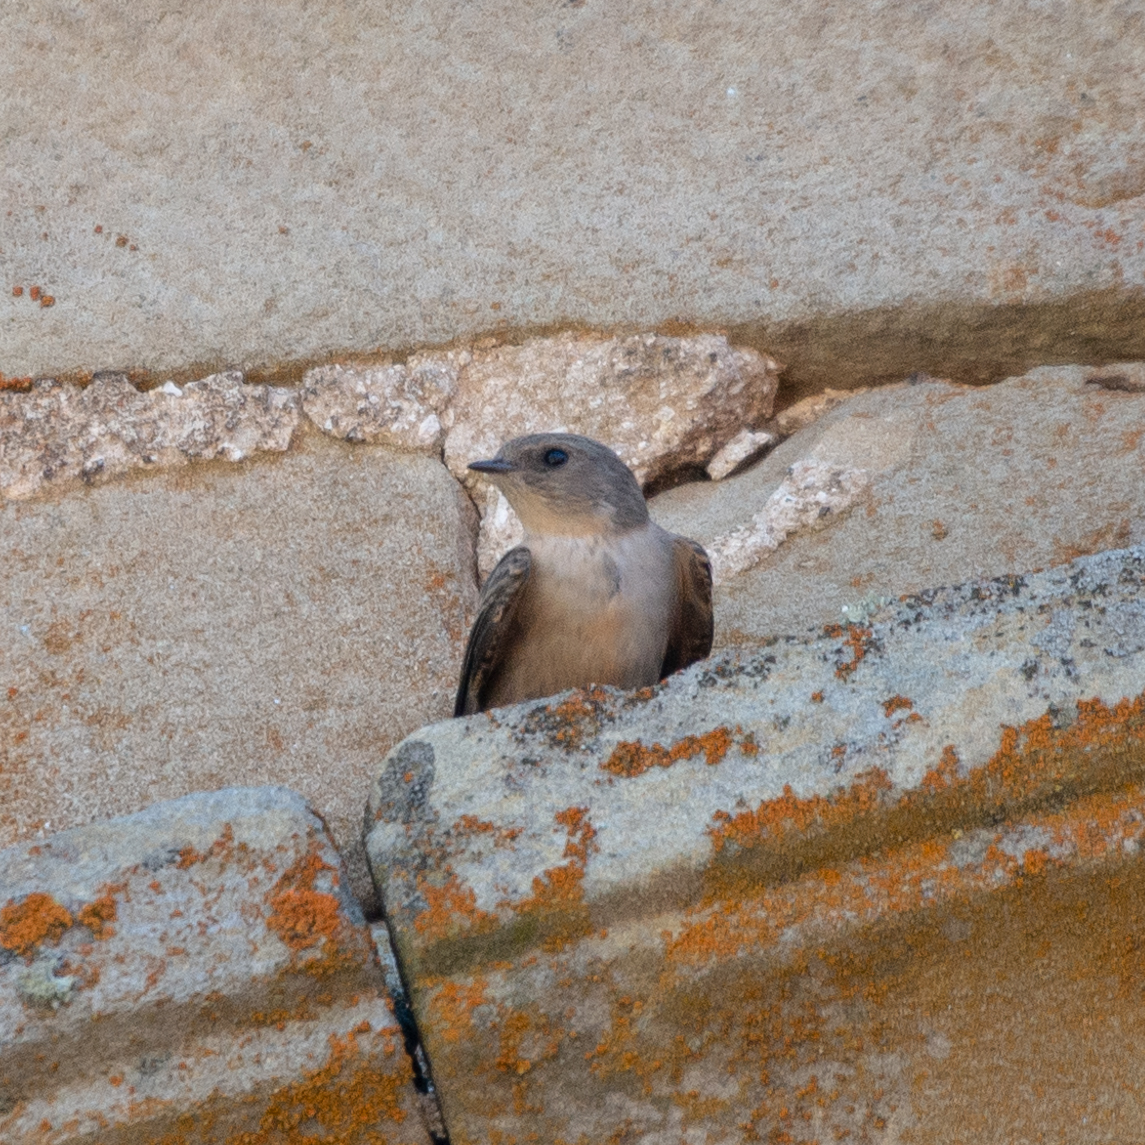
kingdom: Animalia
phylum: Chordata
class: Aves
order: Passeriformes
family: Hirundinidae
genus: Ptyonoprogne
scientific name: Ptyonoprogne rupestris
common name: Eurasian crag martin
